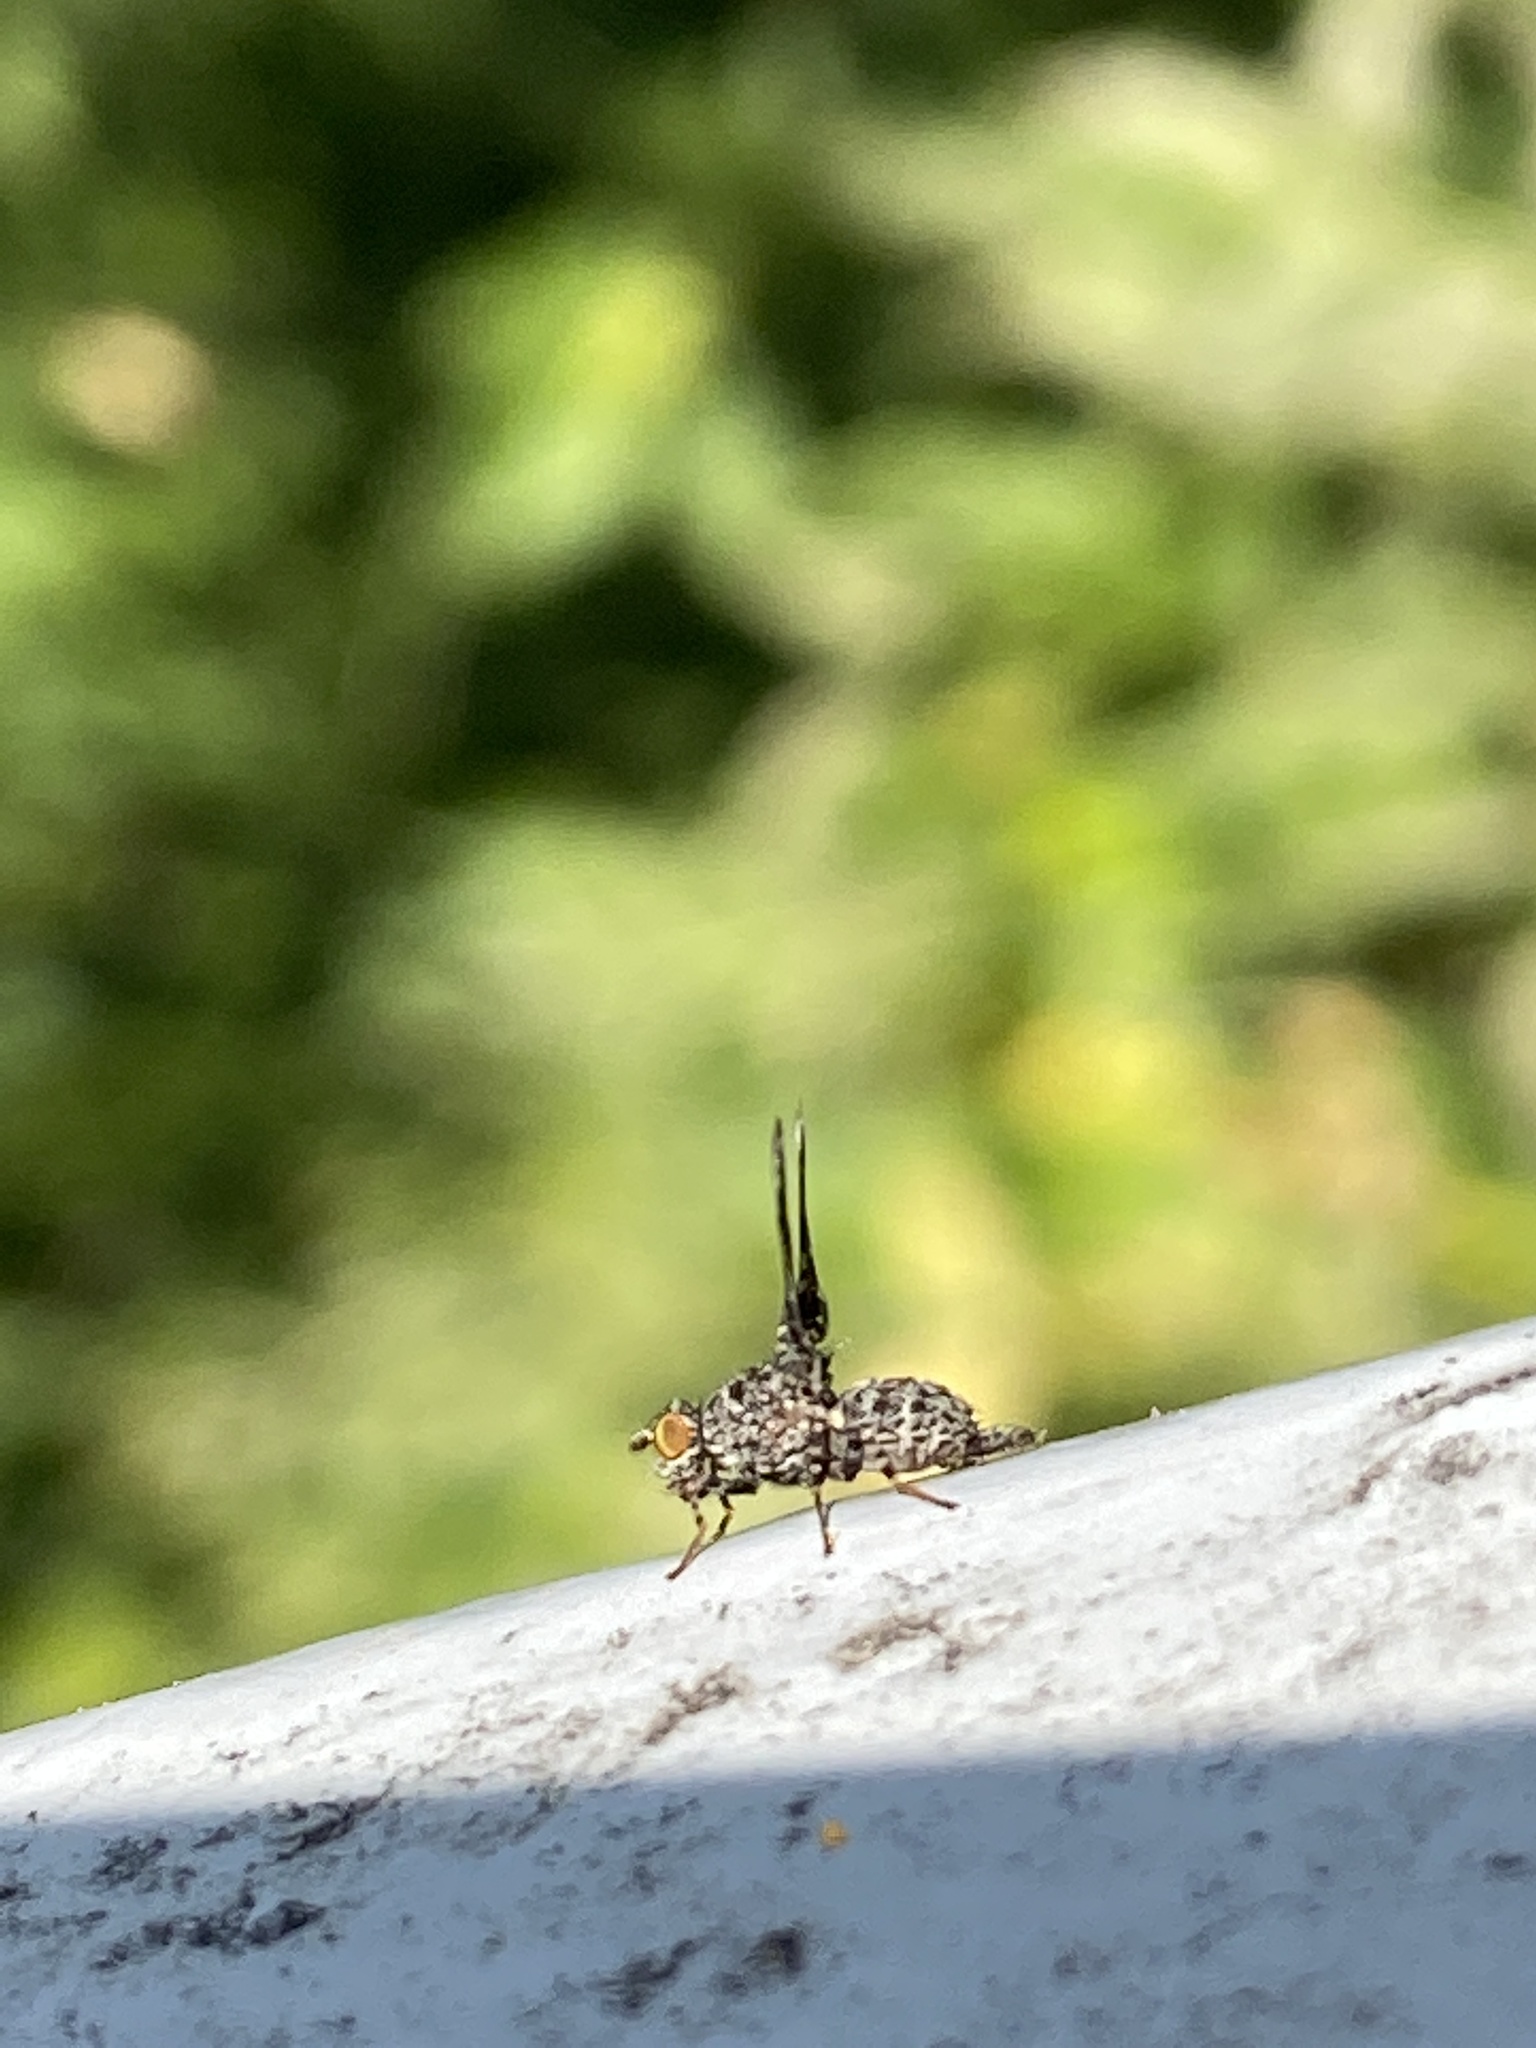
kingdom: Animalia
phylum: Arthropoda
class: Insecta
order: Diptera
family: Ulidiidae
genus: Callopistromyia
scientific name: Callopistromyia annulipes
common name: Peacock fly
